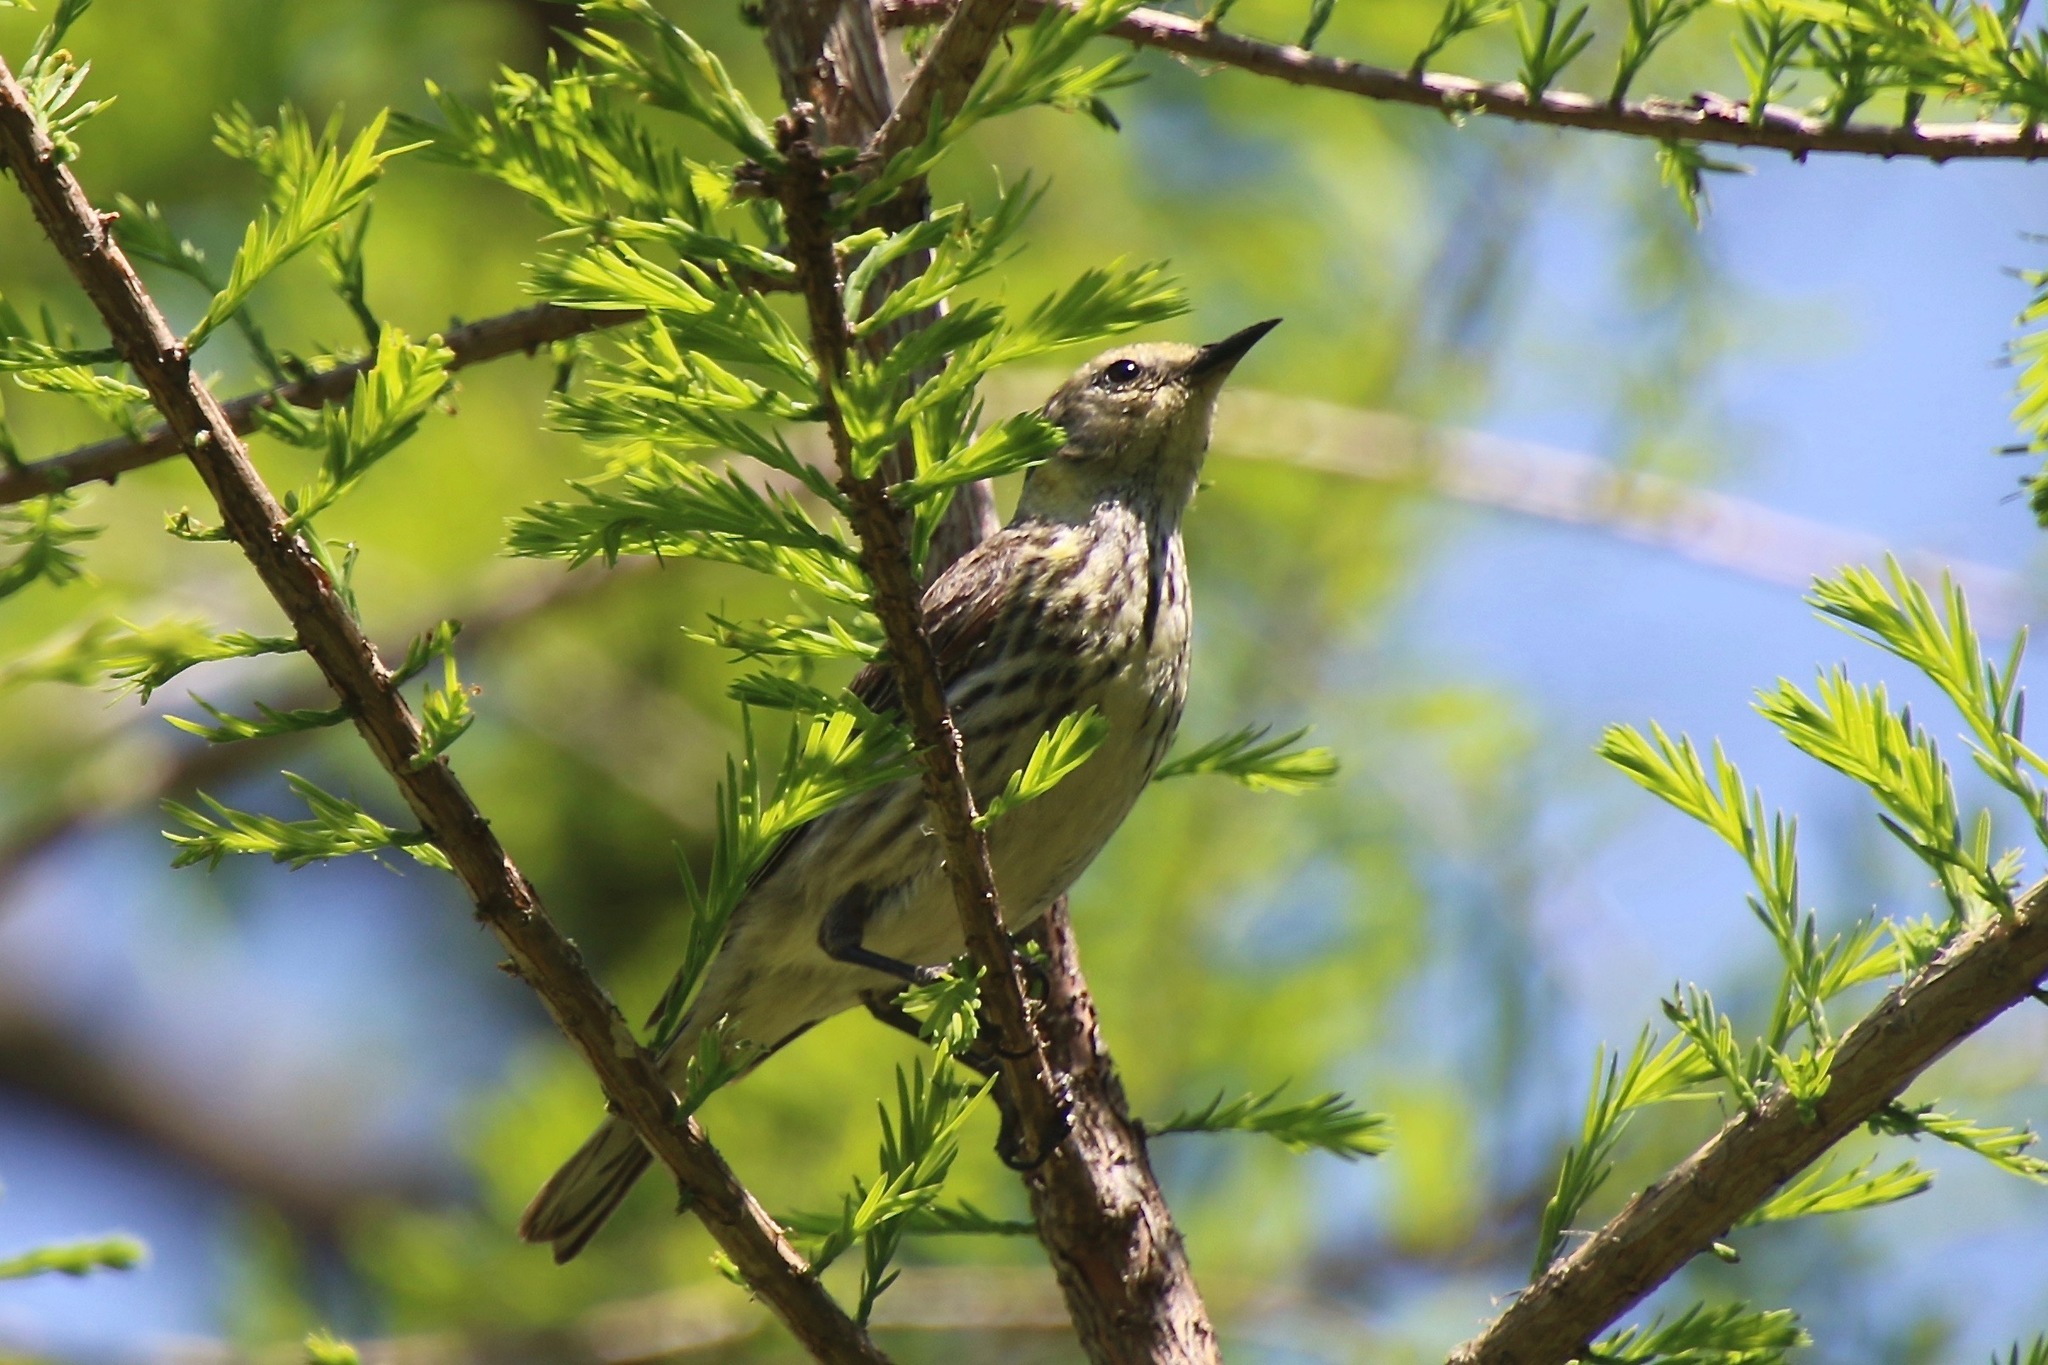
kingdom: Animalia
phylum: Chordata
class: Aves
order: Passeriformes
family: Parulidae
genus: Setophaga
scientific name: Setophaga tigrina
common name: Cape may warbler
